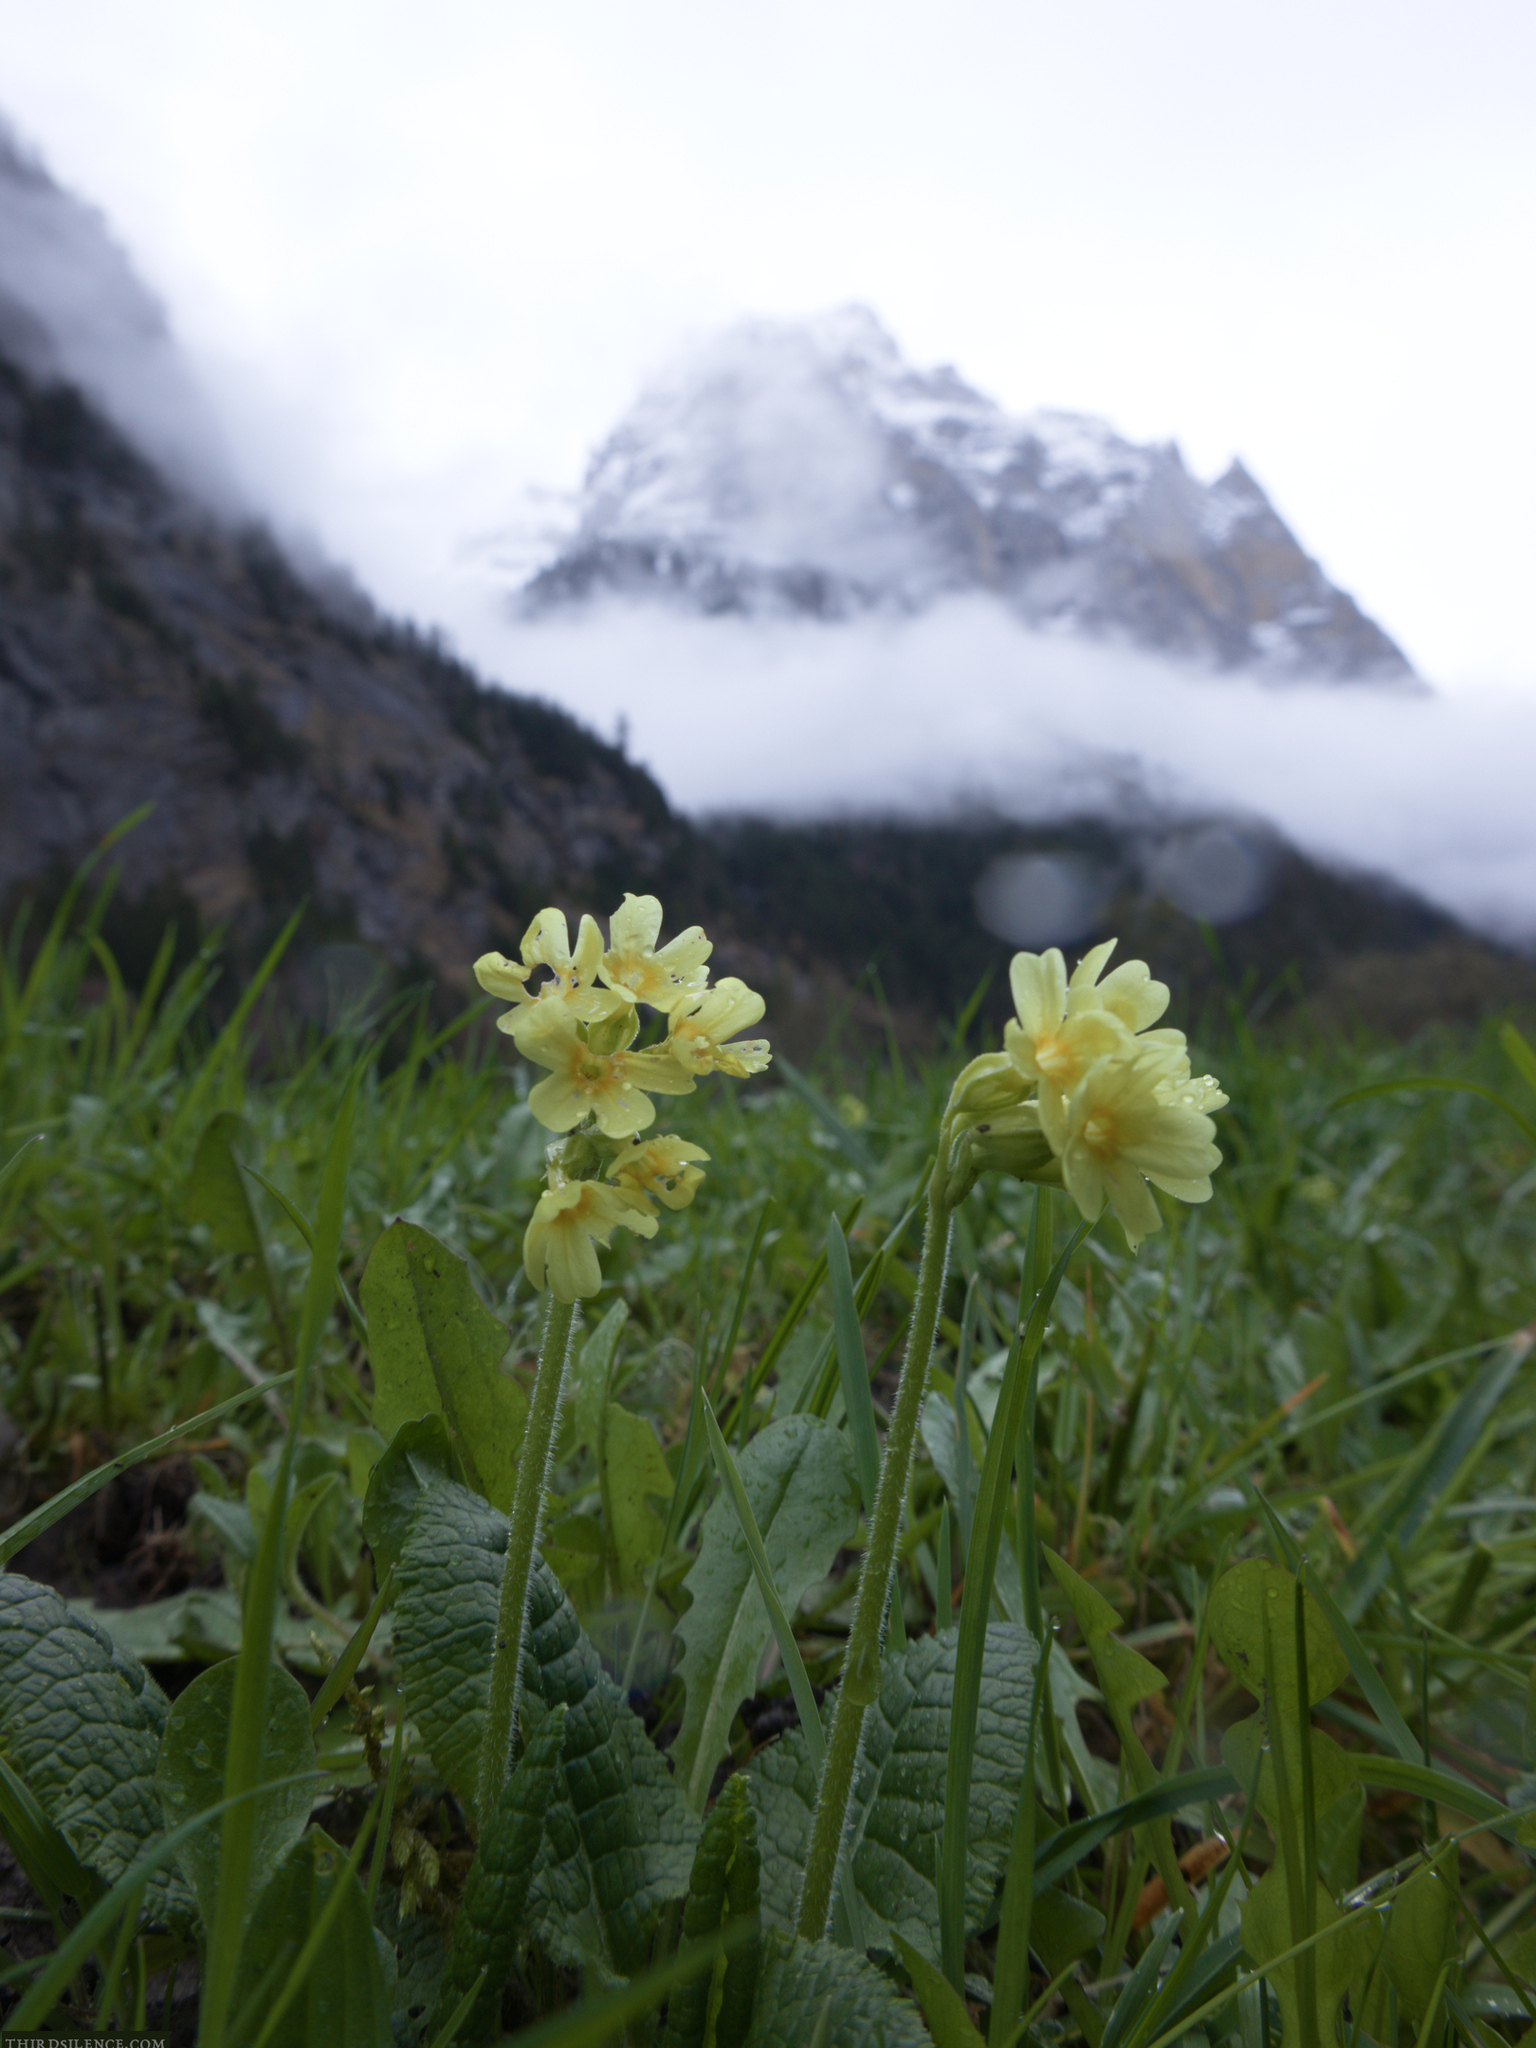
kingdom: Plantae
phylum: Tracheophyta
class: Magnoliopsida
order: Ericales
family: Primulaceae
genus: Primula
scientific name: Primula elatior
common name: Oxlip
